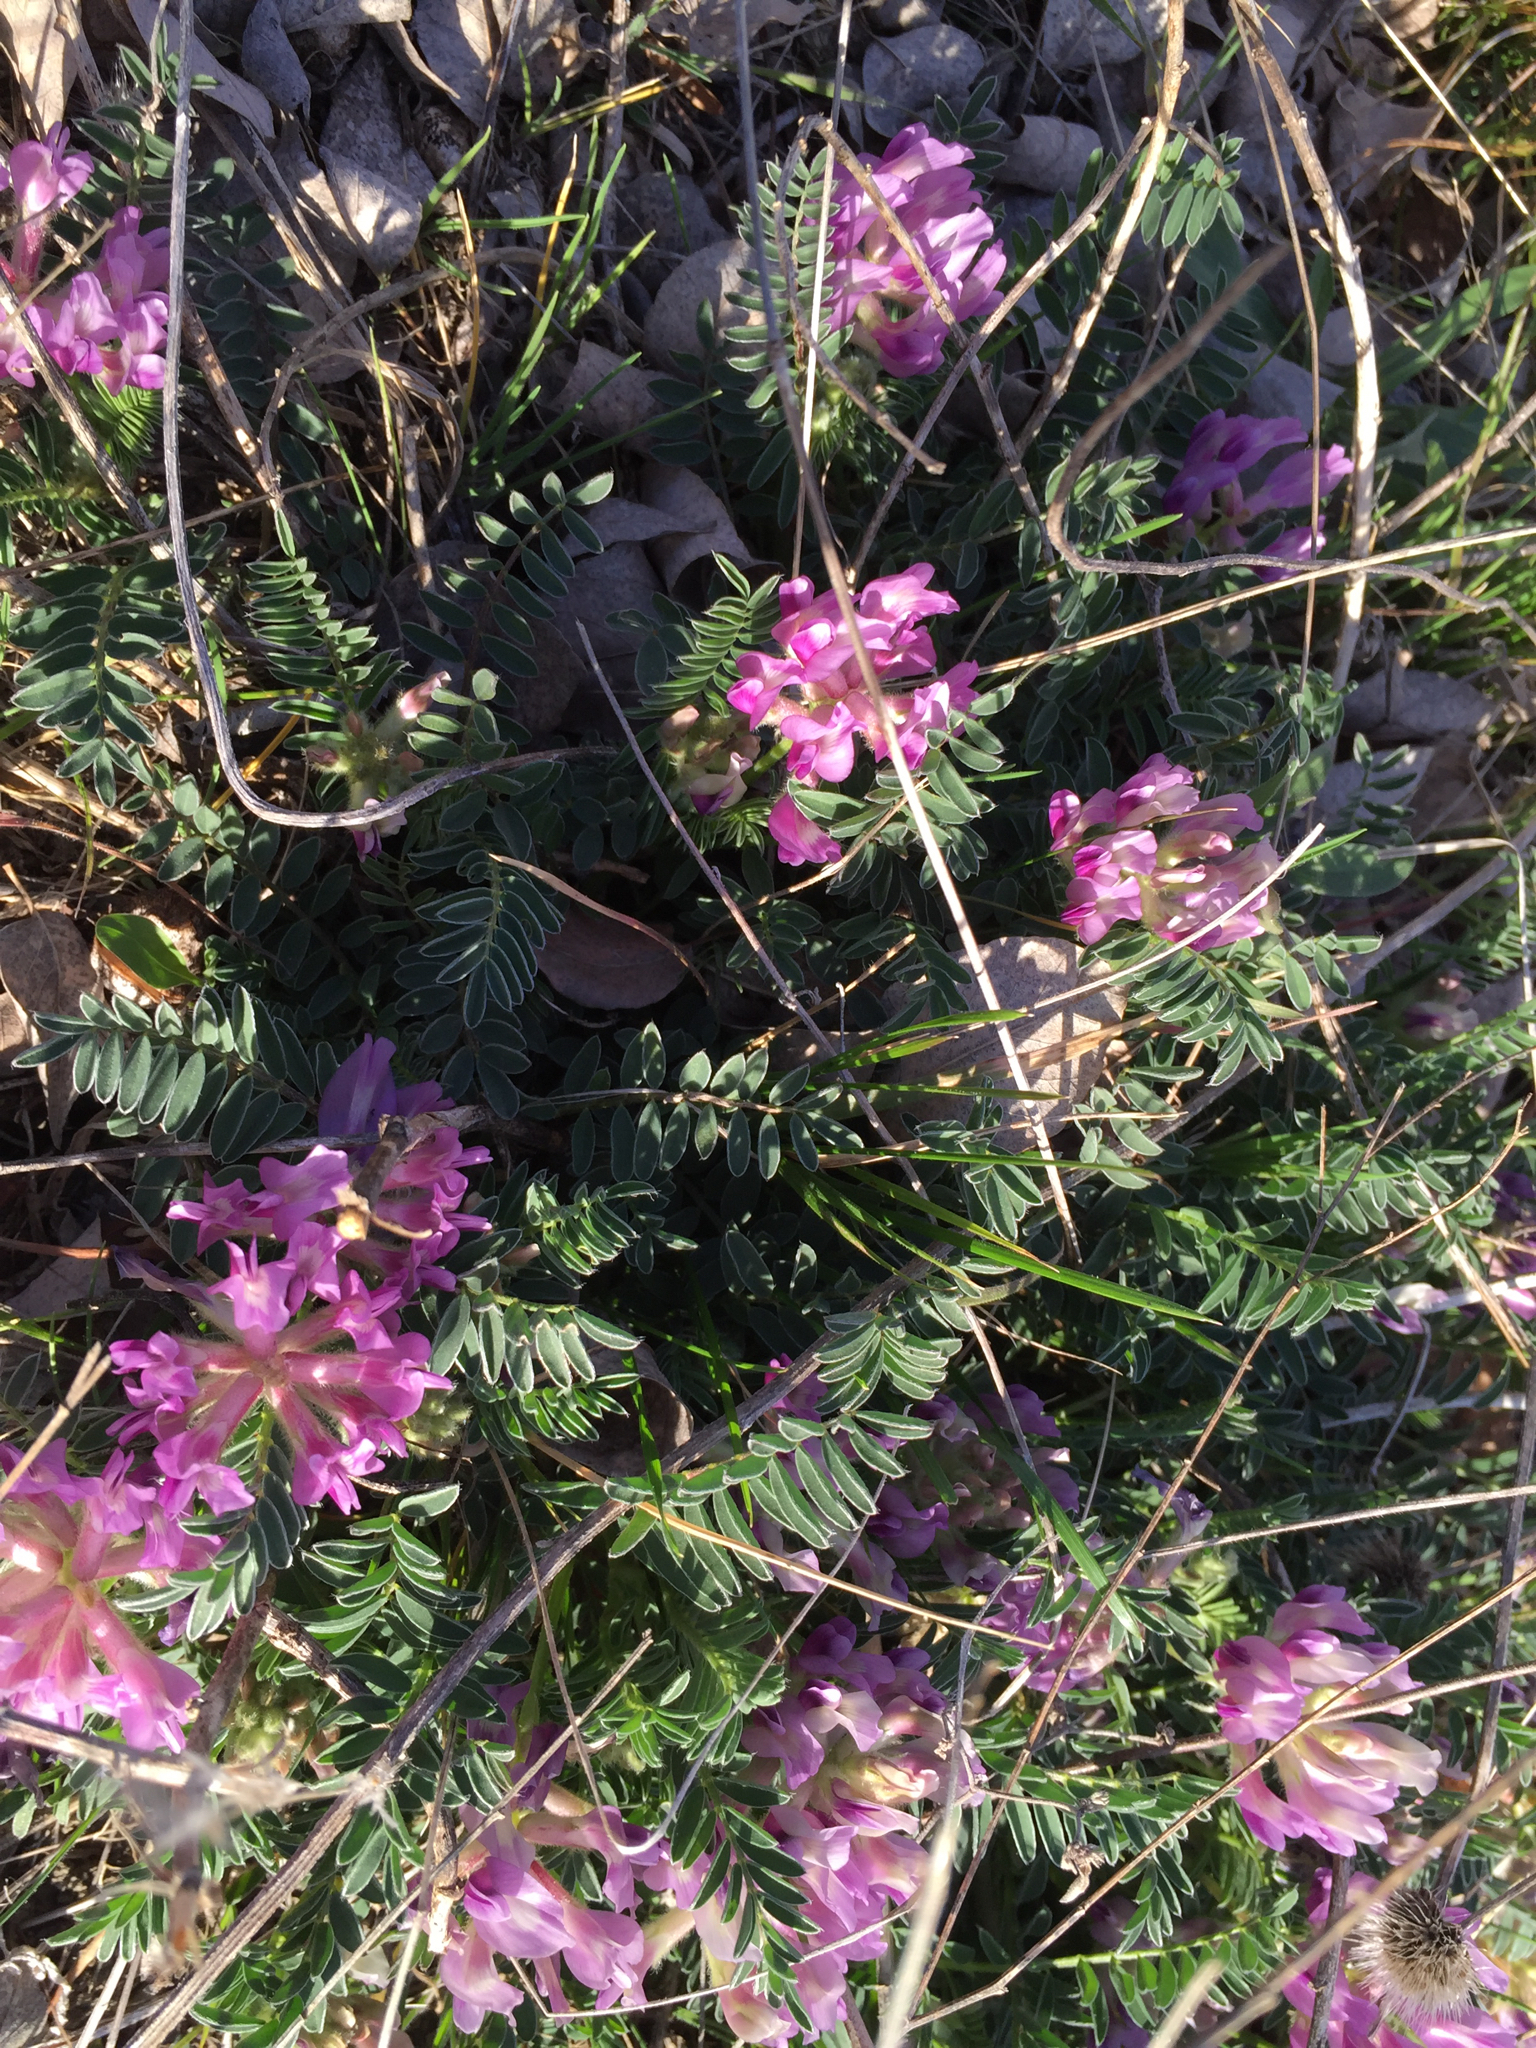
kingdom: Plantae
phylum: Tracheophyta
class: Magnoliopsida
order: Fabales
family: Fabaceae
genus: Astragalus
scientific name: Astragalus crassicarpus
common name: Ground-plum milk-vetch
